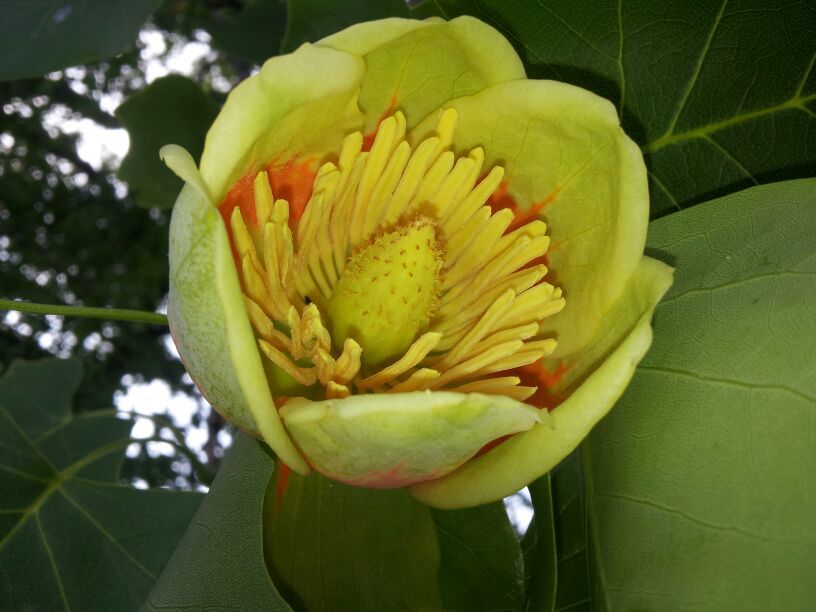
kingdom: Plantae
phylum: Tracheophyta
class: Magnoliopsida
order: Magnoliales
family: Magnoliaceae
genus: Liriodendron
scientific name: Liriodendron tulipifera
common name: Tulip tree
